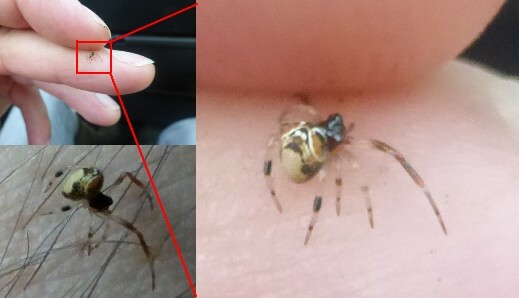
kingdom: Animalia
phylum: Arthropoda
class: Arachnida
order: Araneae
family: Theridiidae
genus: Parasteatoda
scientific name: Parasteatoda lunata
